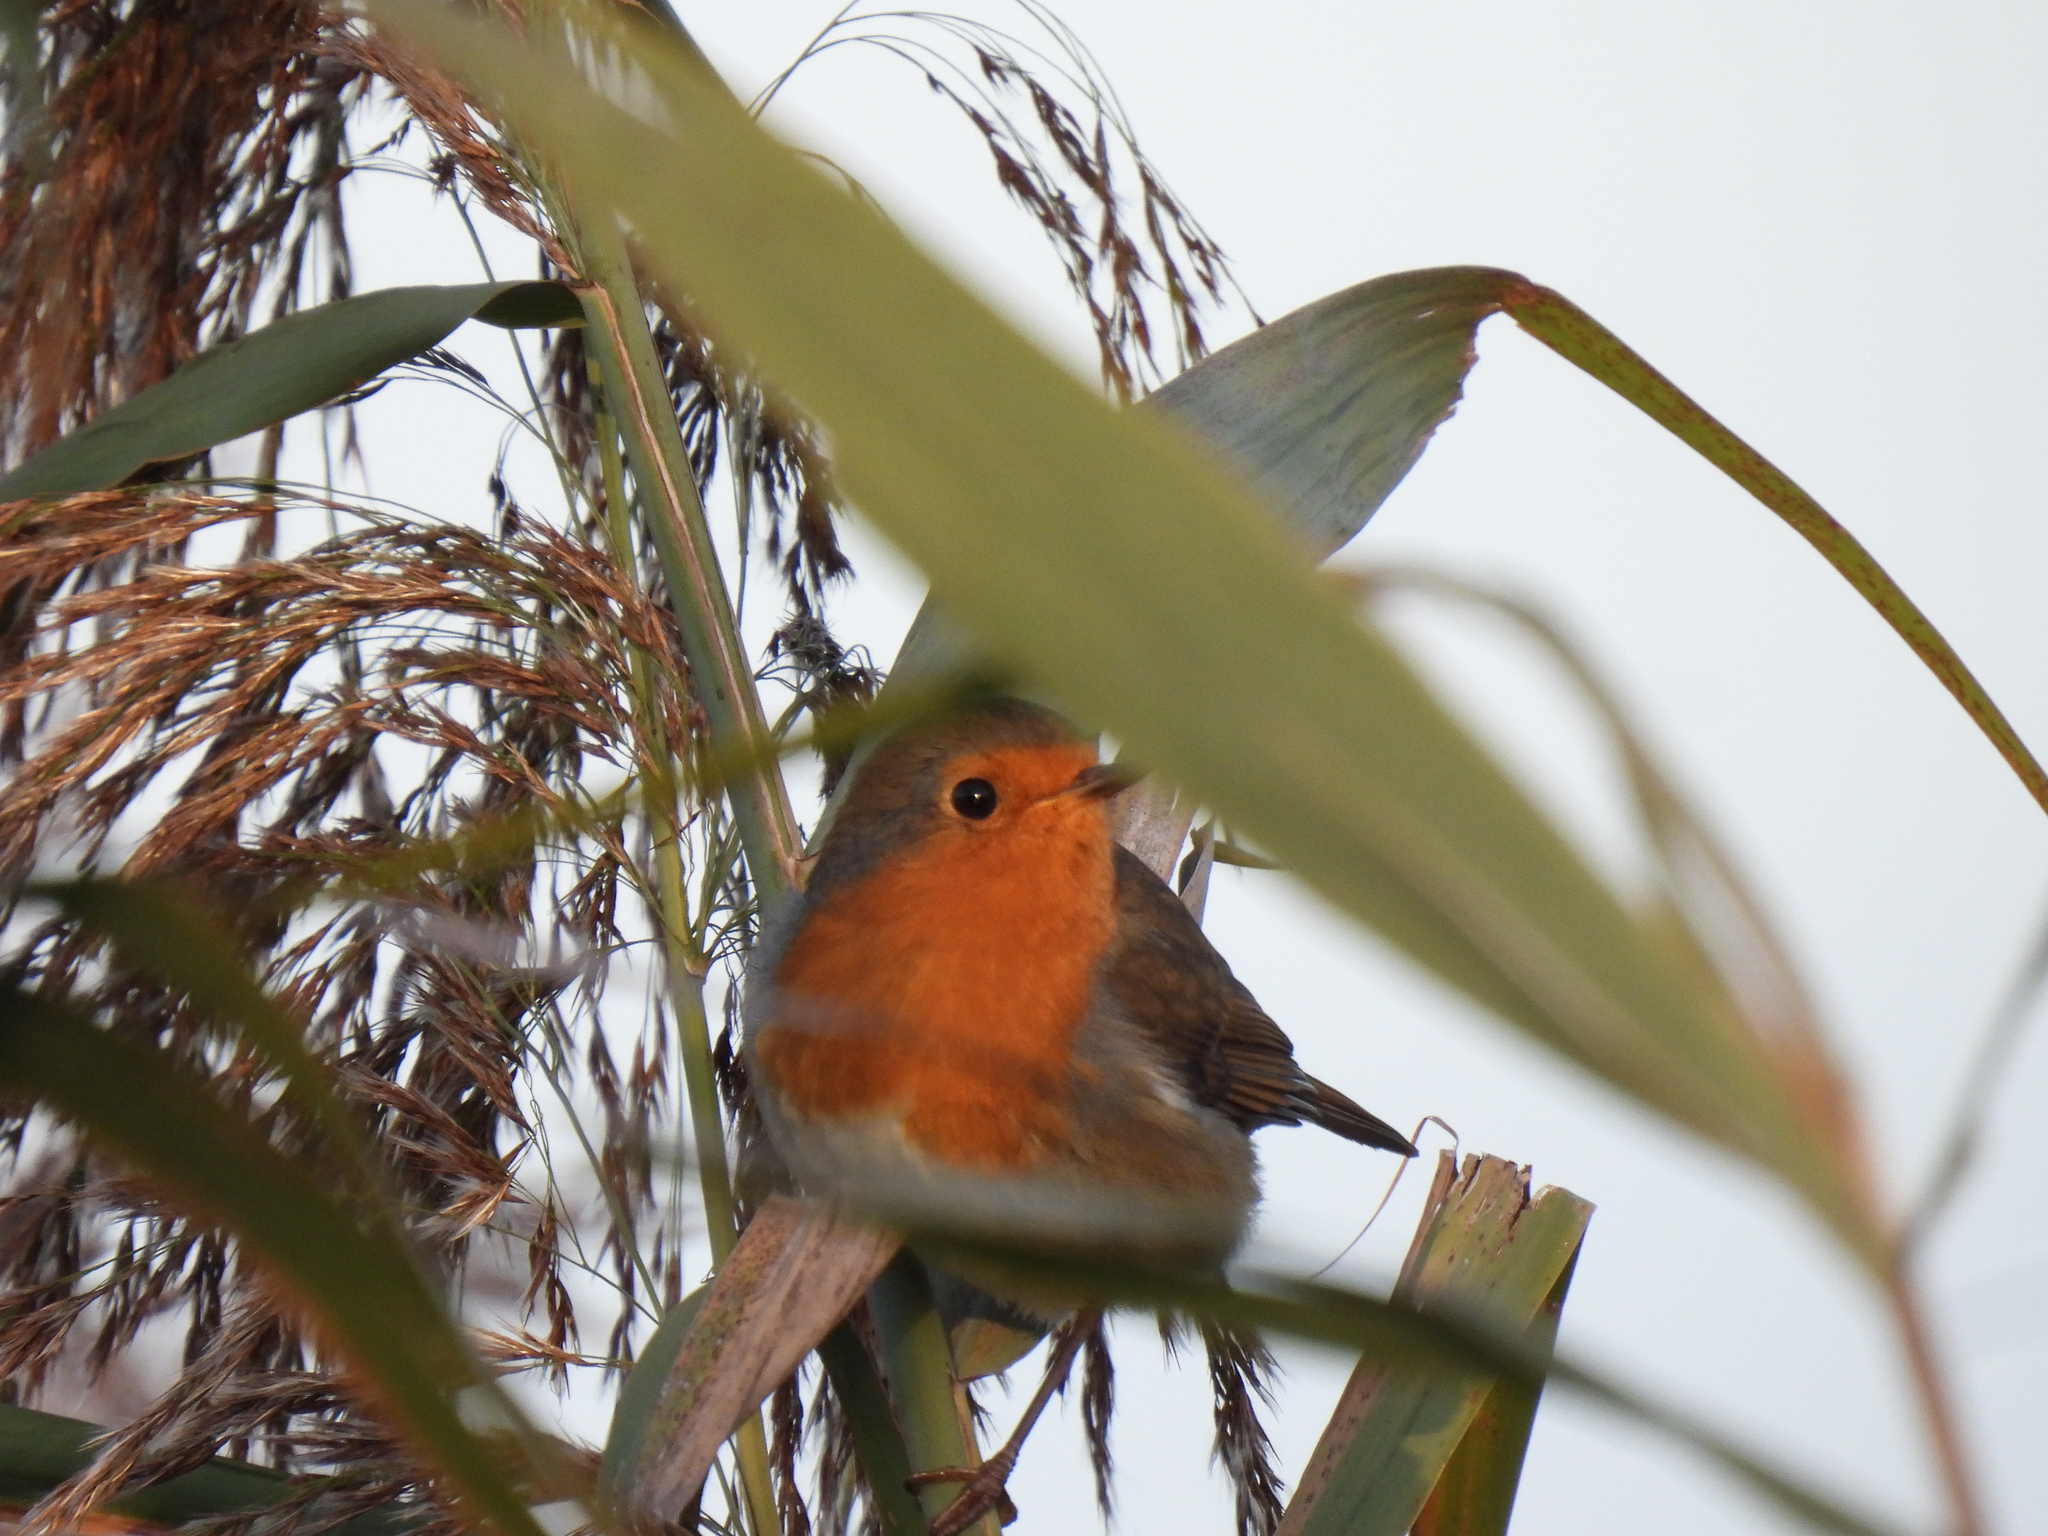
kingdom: Animalia
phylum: Chordata
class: Aves
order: Passeriformes
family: Muscicapidae
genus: Erithacus
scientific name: Erithacus rubecula
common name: European robin
